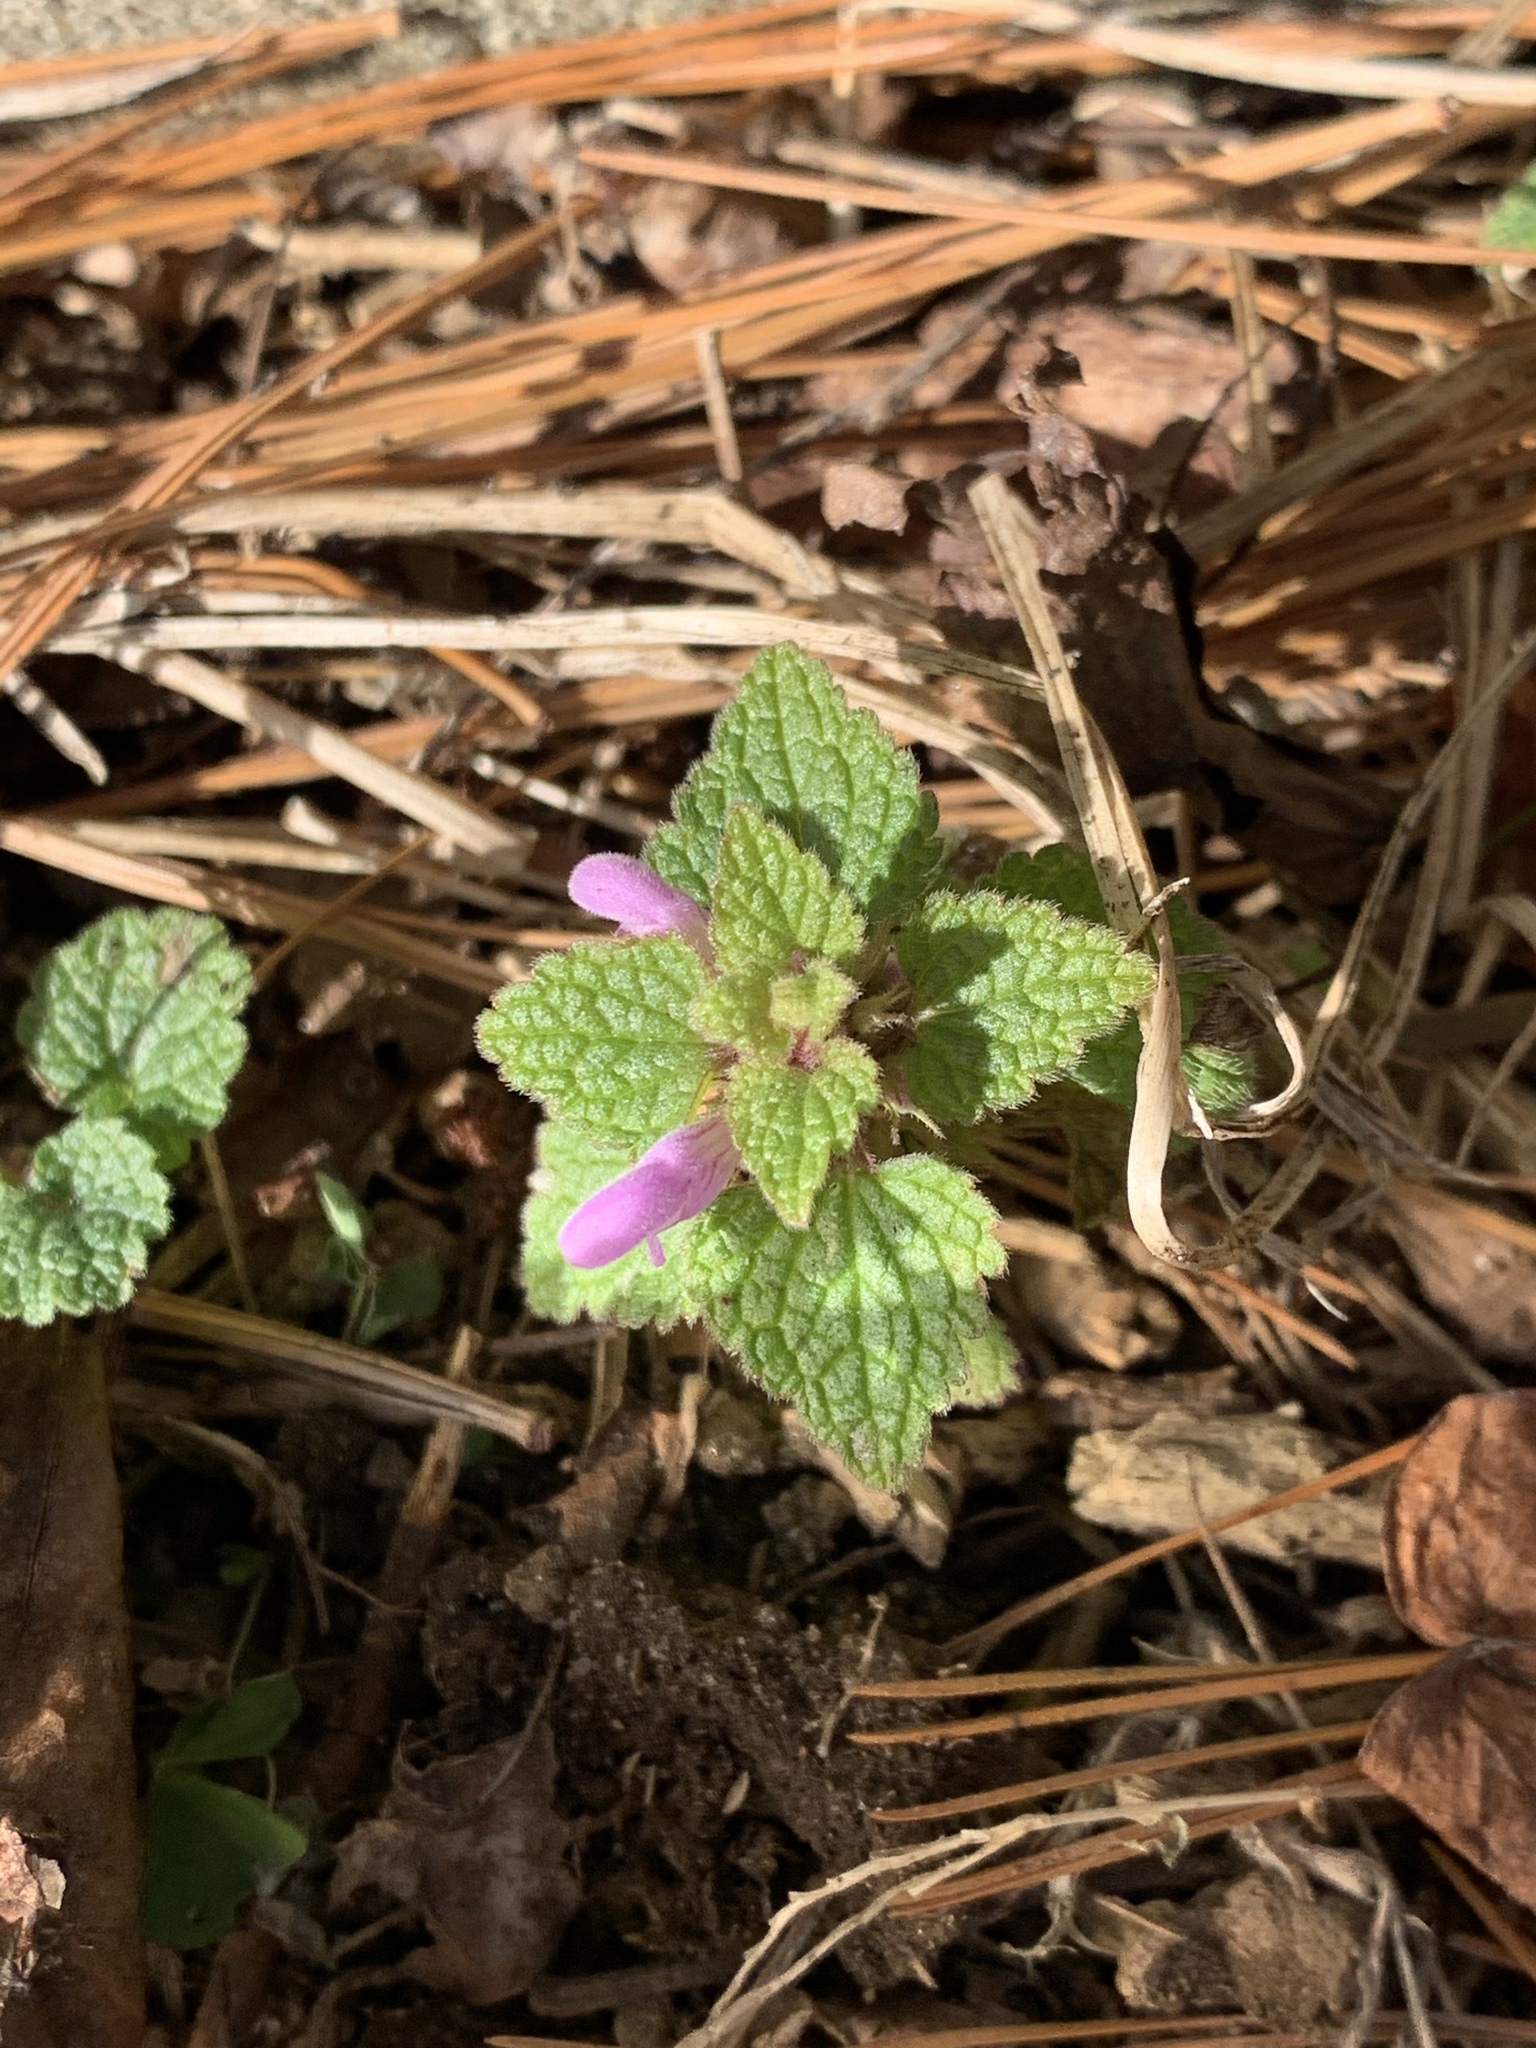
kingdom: Plantae
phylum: Tracheophyta
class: Magnoliopsida
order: Lamiales
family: Lamiaceae
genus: Lamium
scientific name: Lamium purpureum
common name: Red dead-nettle
